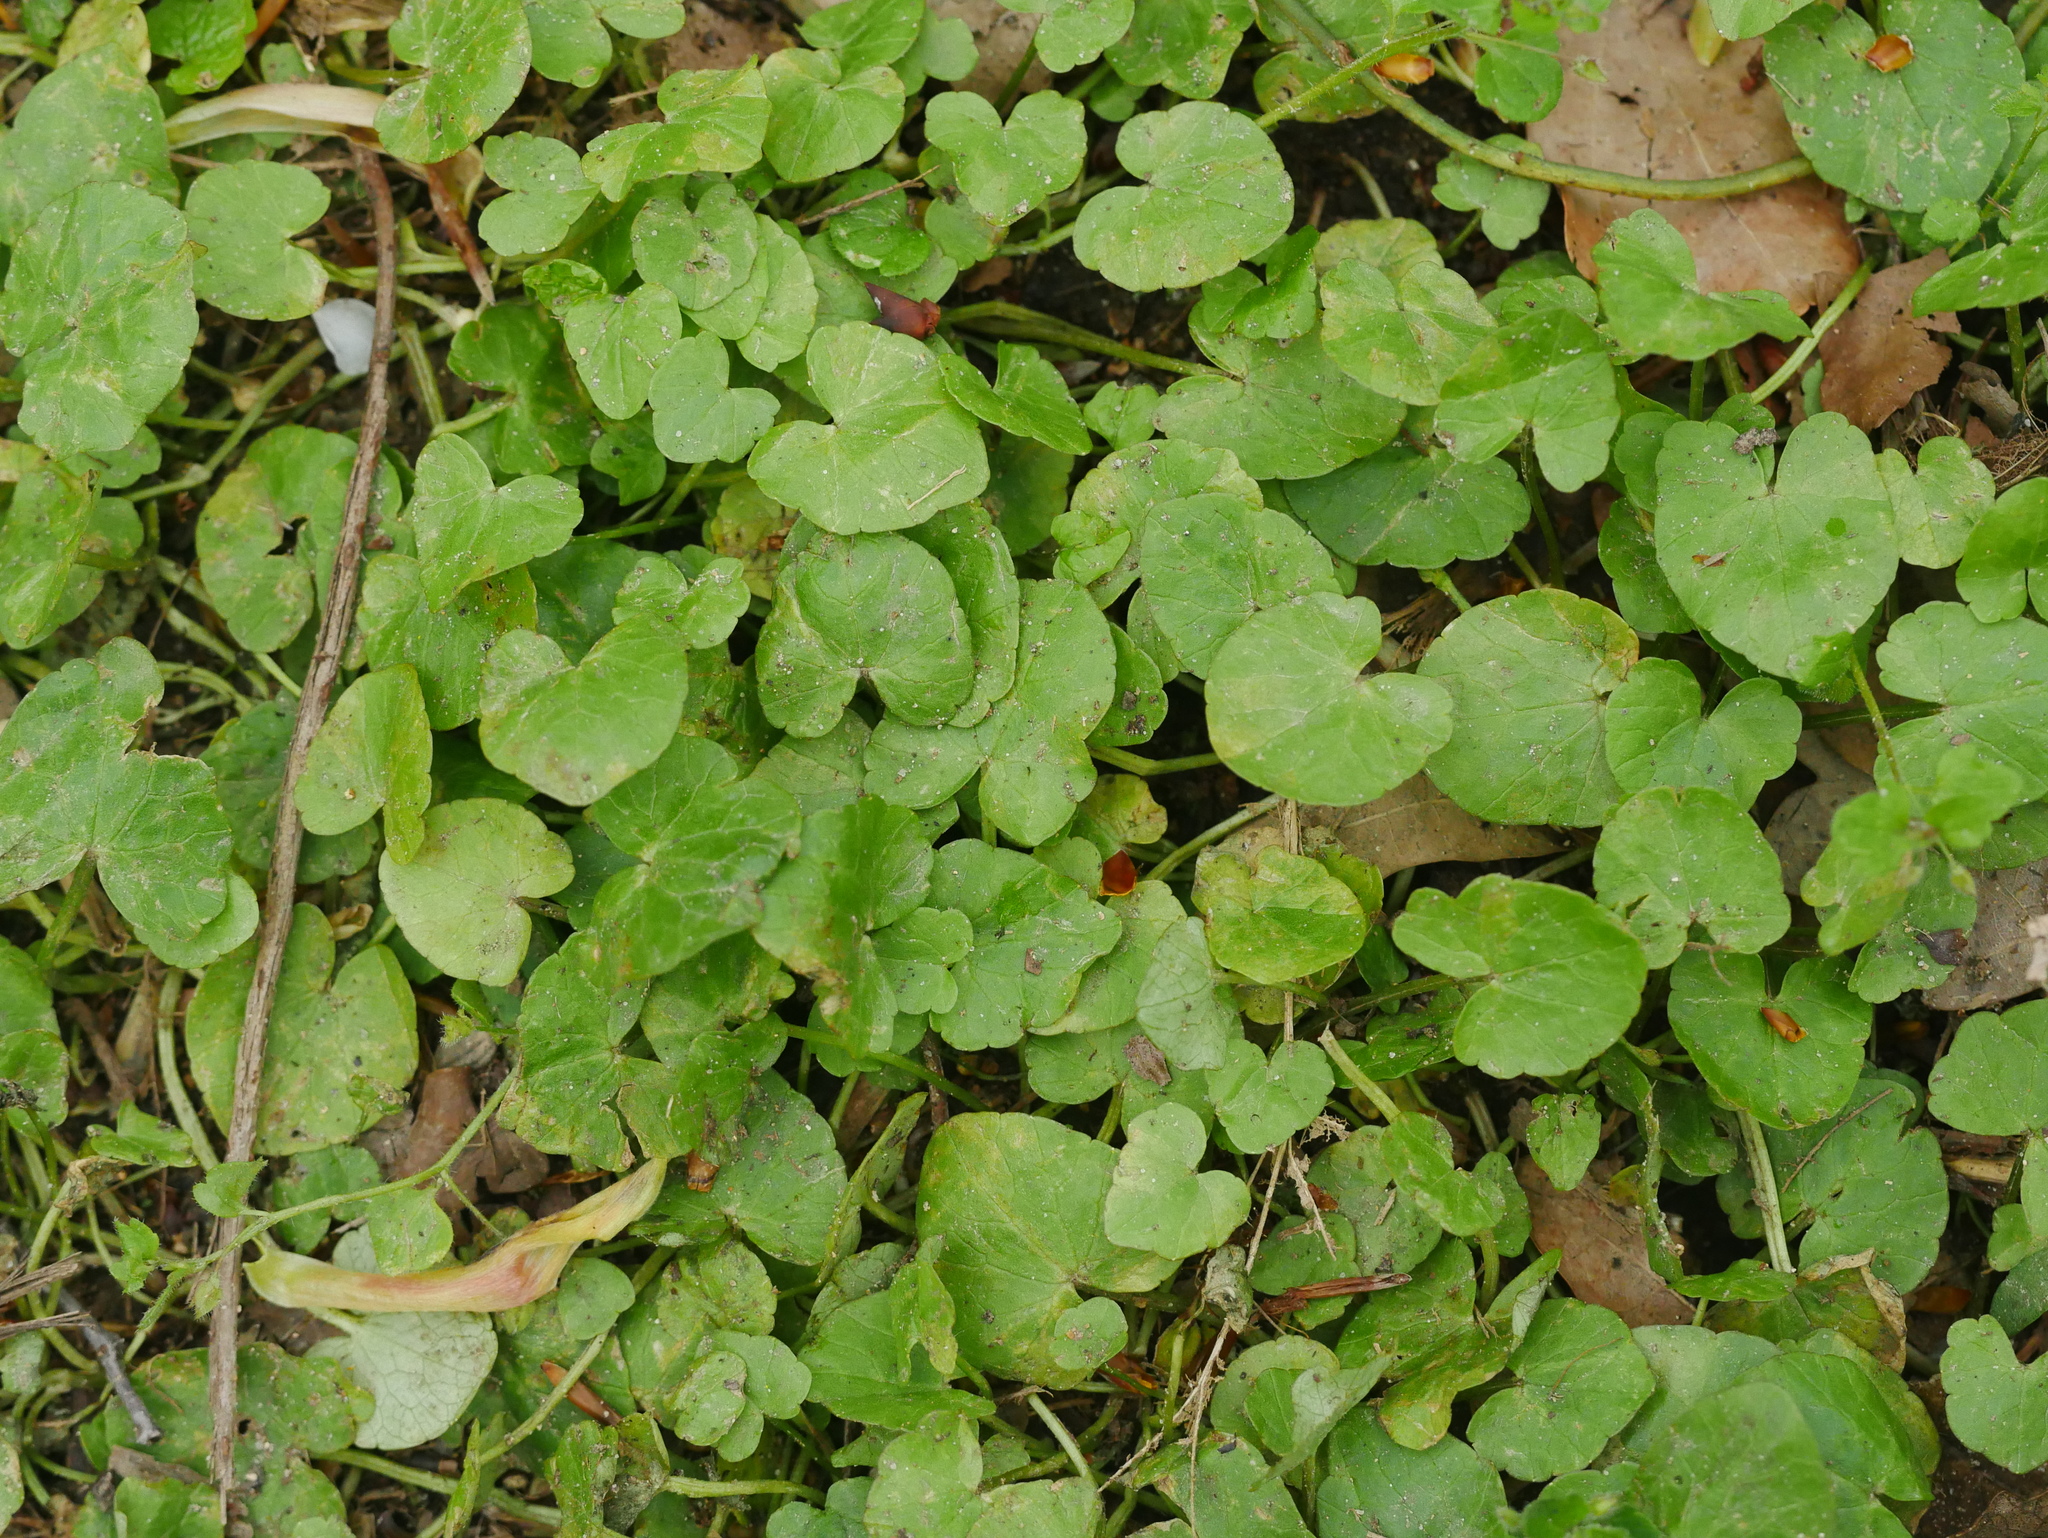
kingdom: Plantae
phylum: Tracheophyta
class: Magnoliopsida
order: Ranunculales
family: Ranunculaceae
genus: Ficaria
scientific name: Ficaria verna
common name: Lesser celandine
